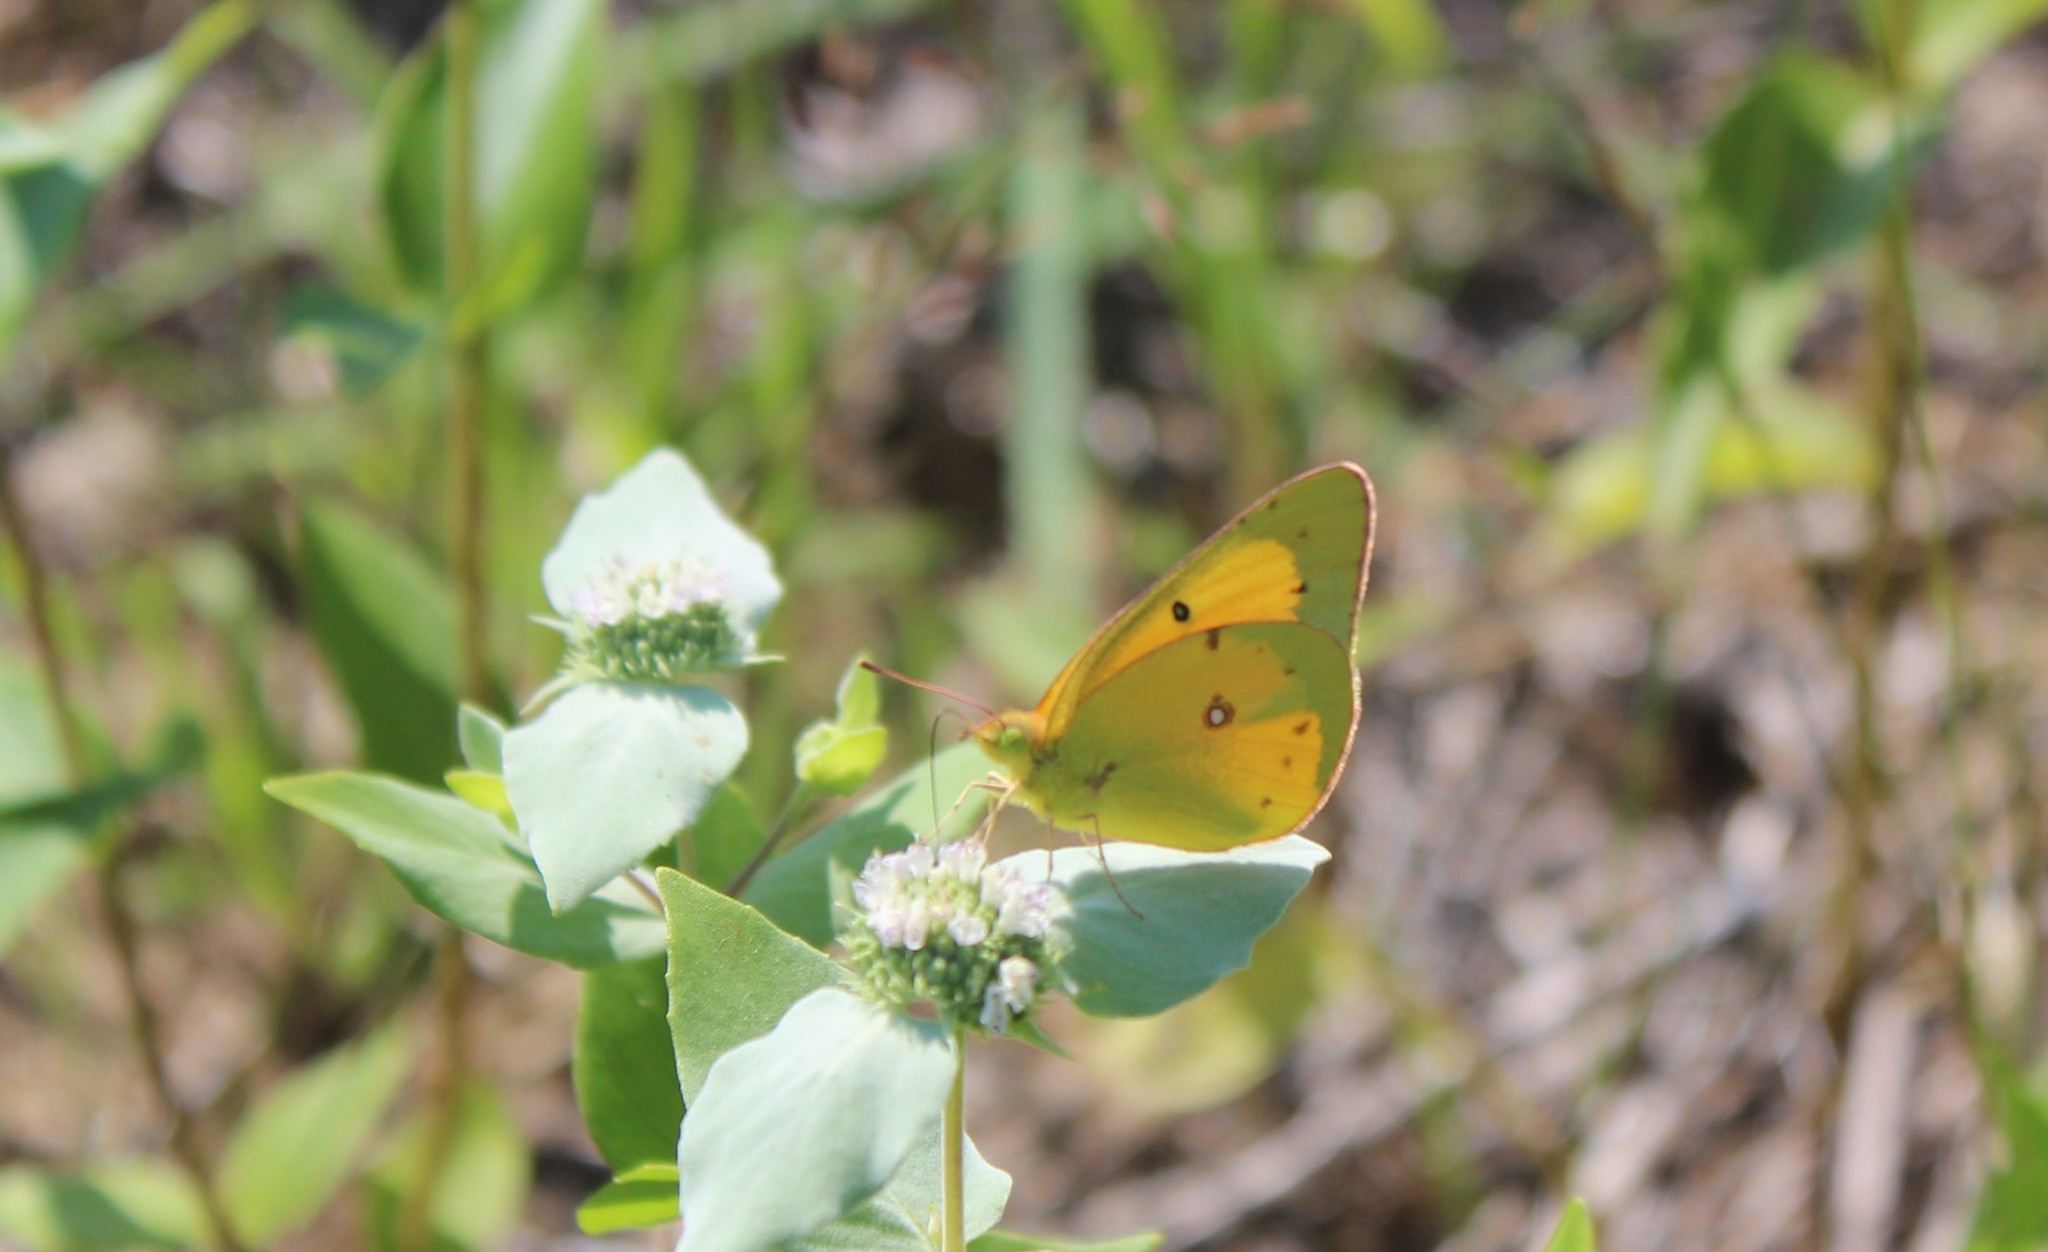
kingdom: Animalia
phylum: Arthropoda
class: Insecta
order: Lepidoptera
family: Pieridae
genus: Colias
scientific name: Colias eurytheme
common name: Alfalfa butterfly
